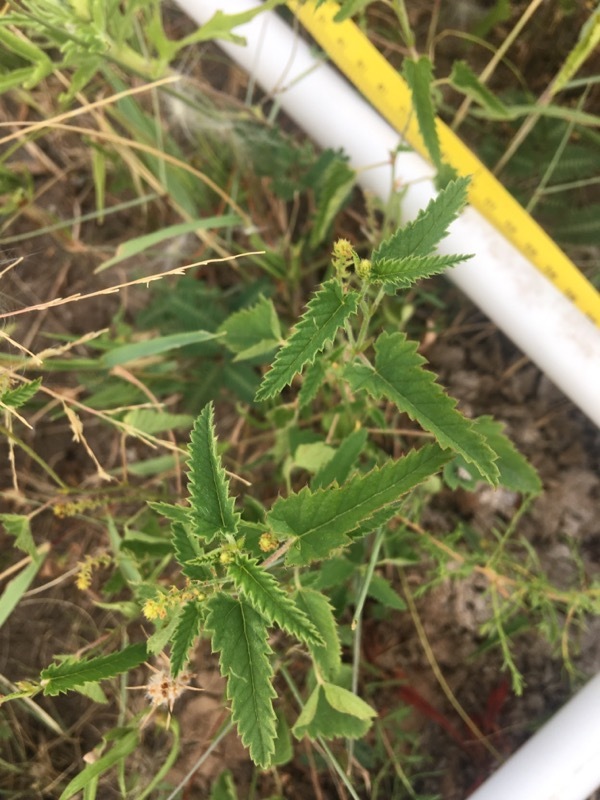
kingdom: Plantae
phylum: Tracheophyta
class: Magnoliopsida
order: Malpighiales
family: Euphorbiaceae
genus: Tragia
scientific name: Tragia ramosa
